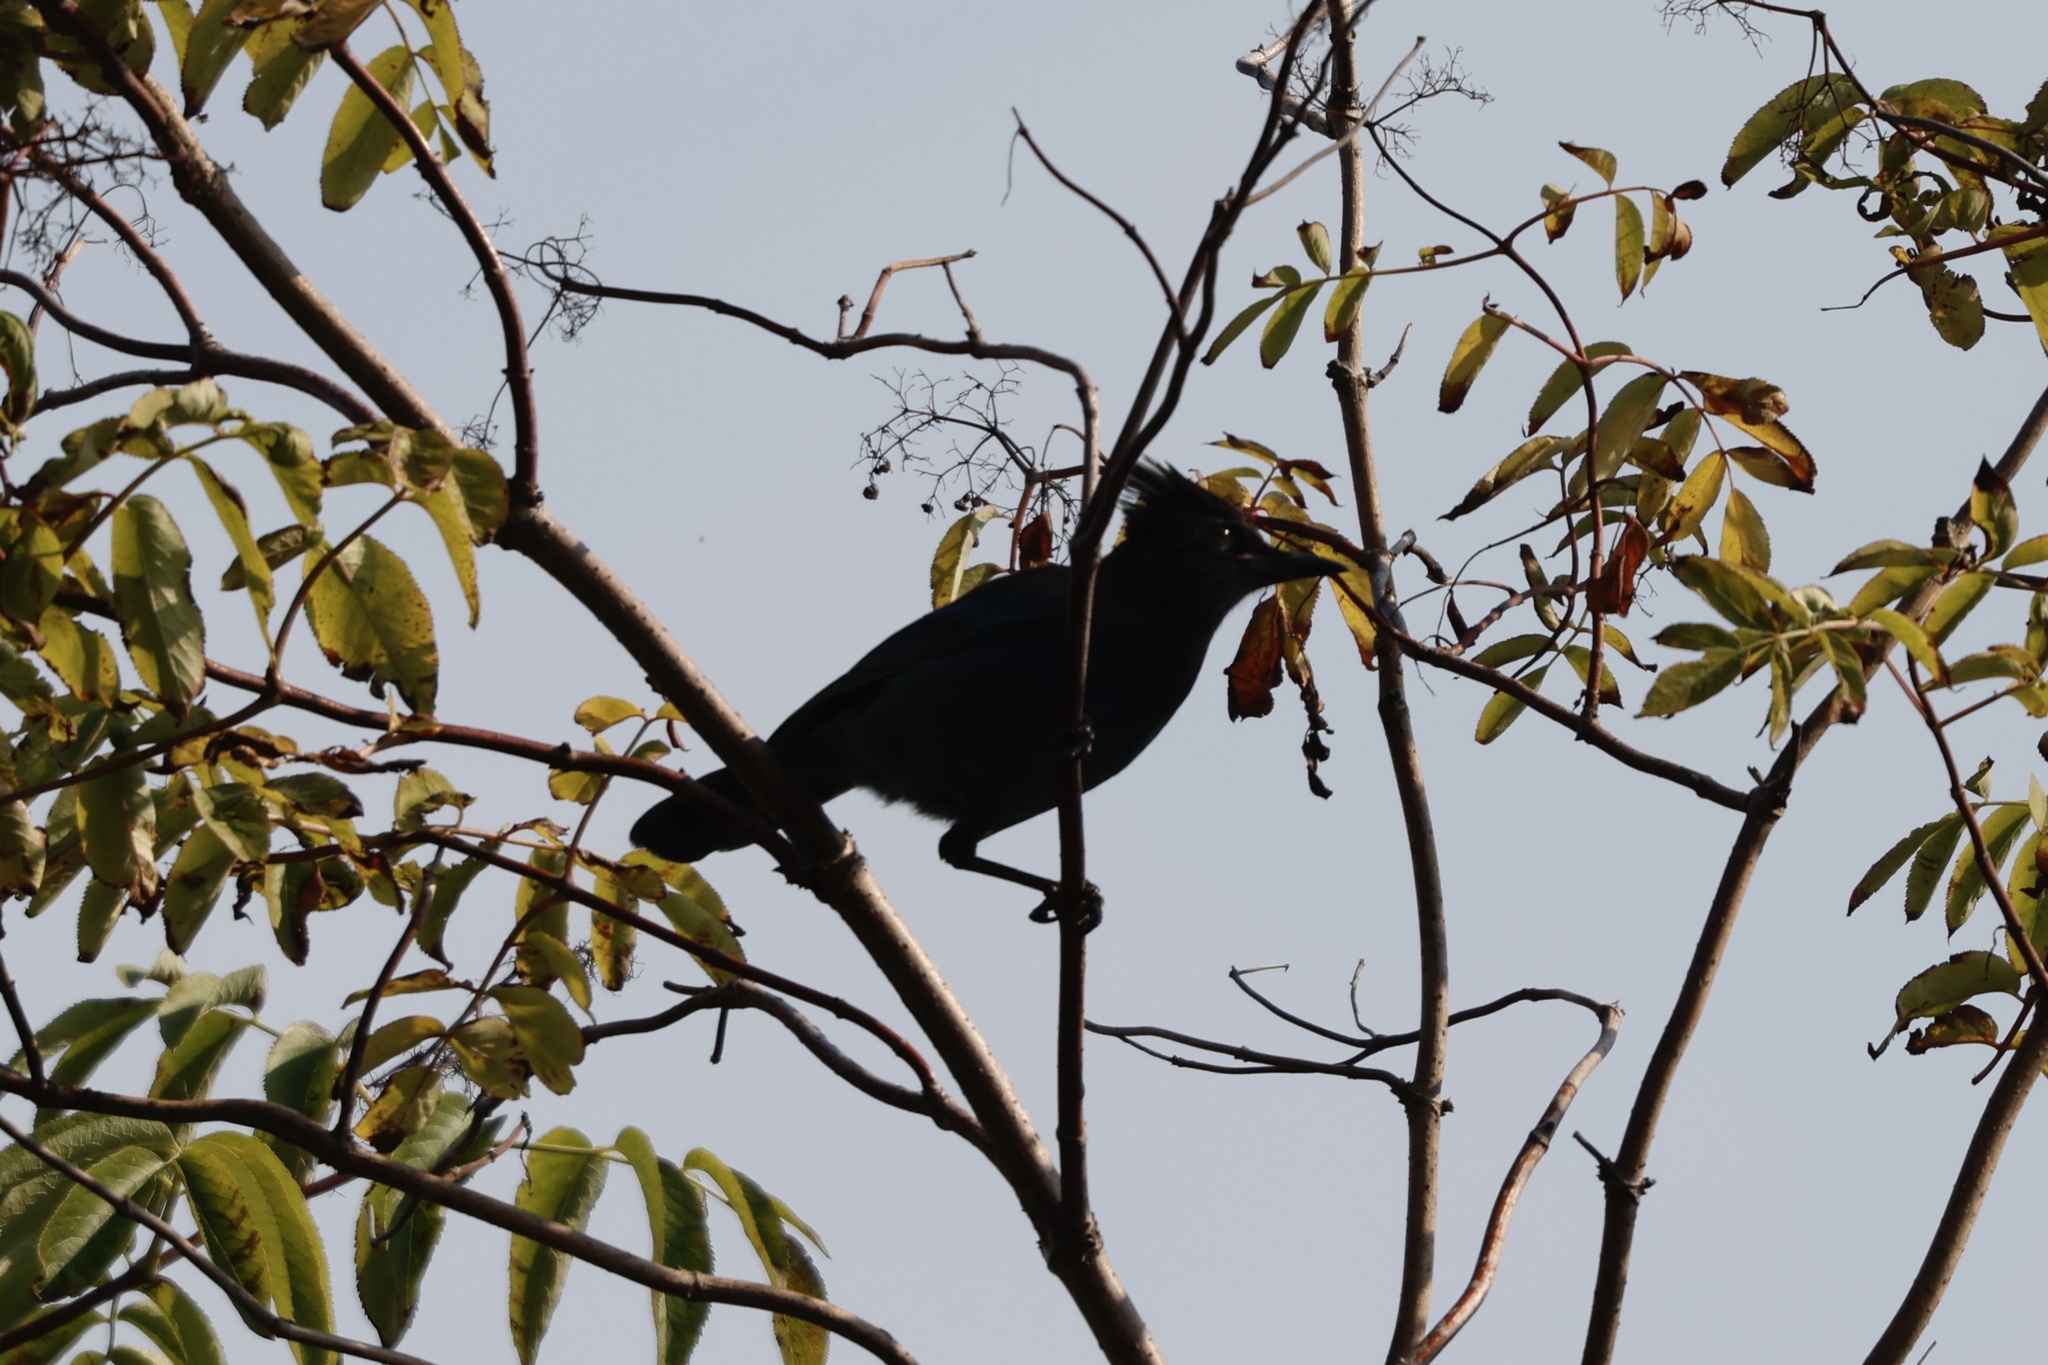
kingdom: Animalia
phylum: Chordata
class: Aves
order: Passeriformes
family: Corvidae
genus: Cyanocitta
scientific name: Cyanocitta stelleri
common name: Steller's jay
